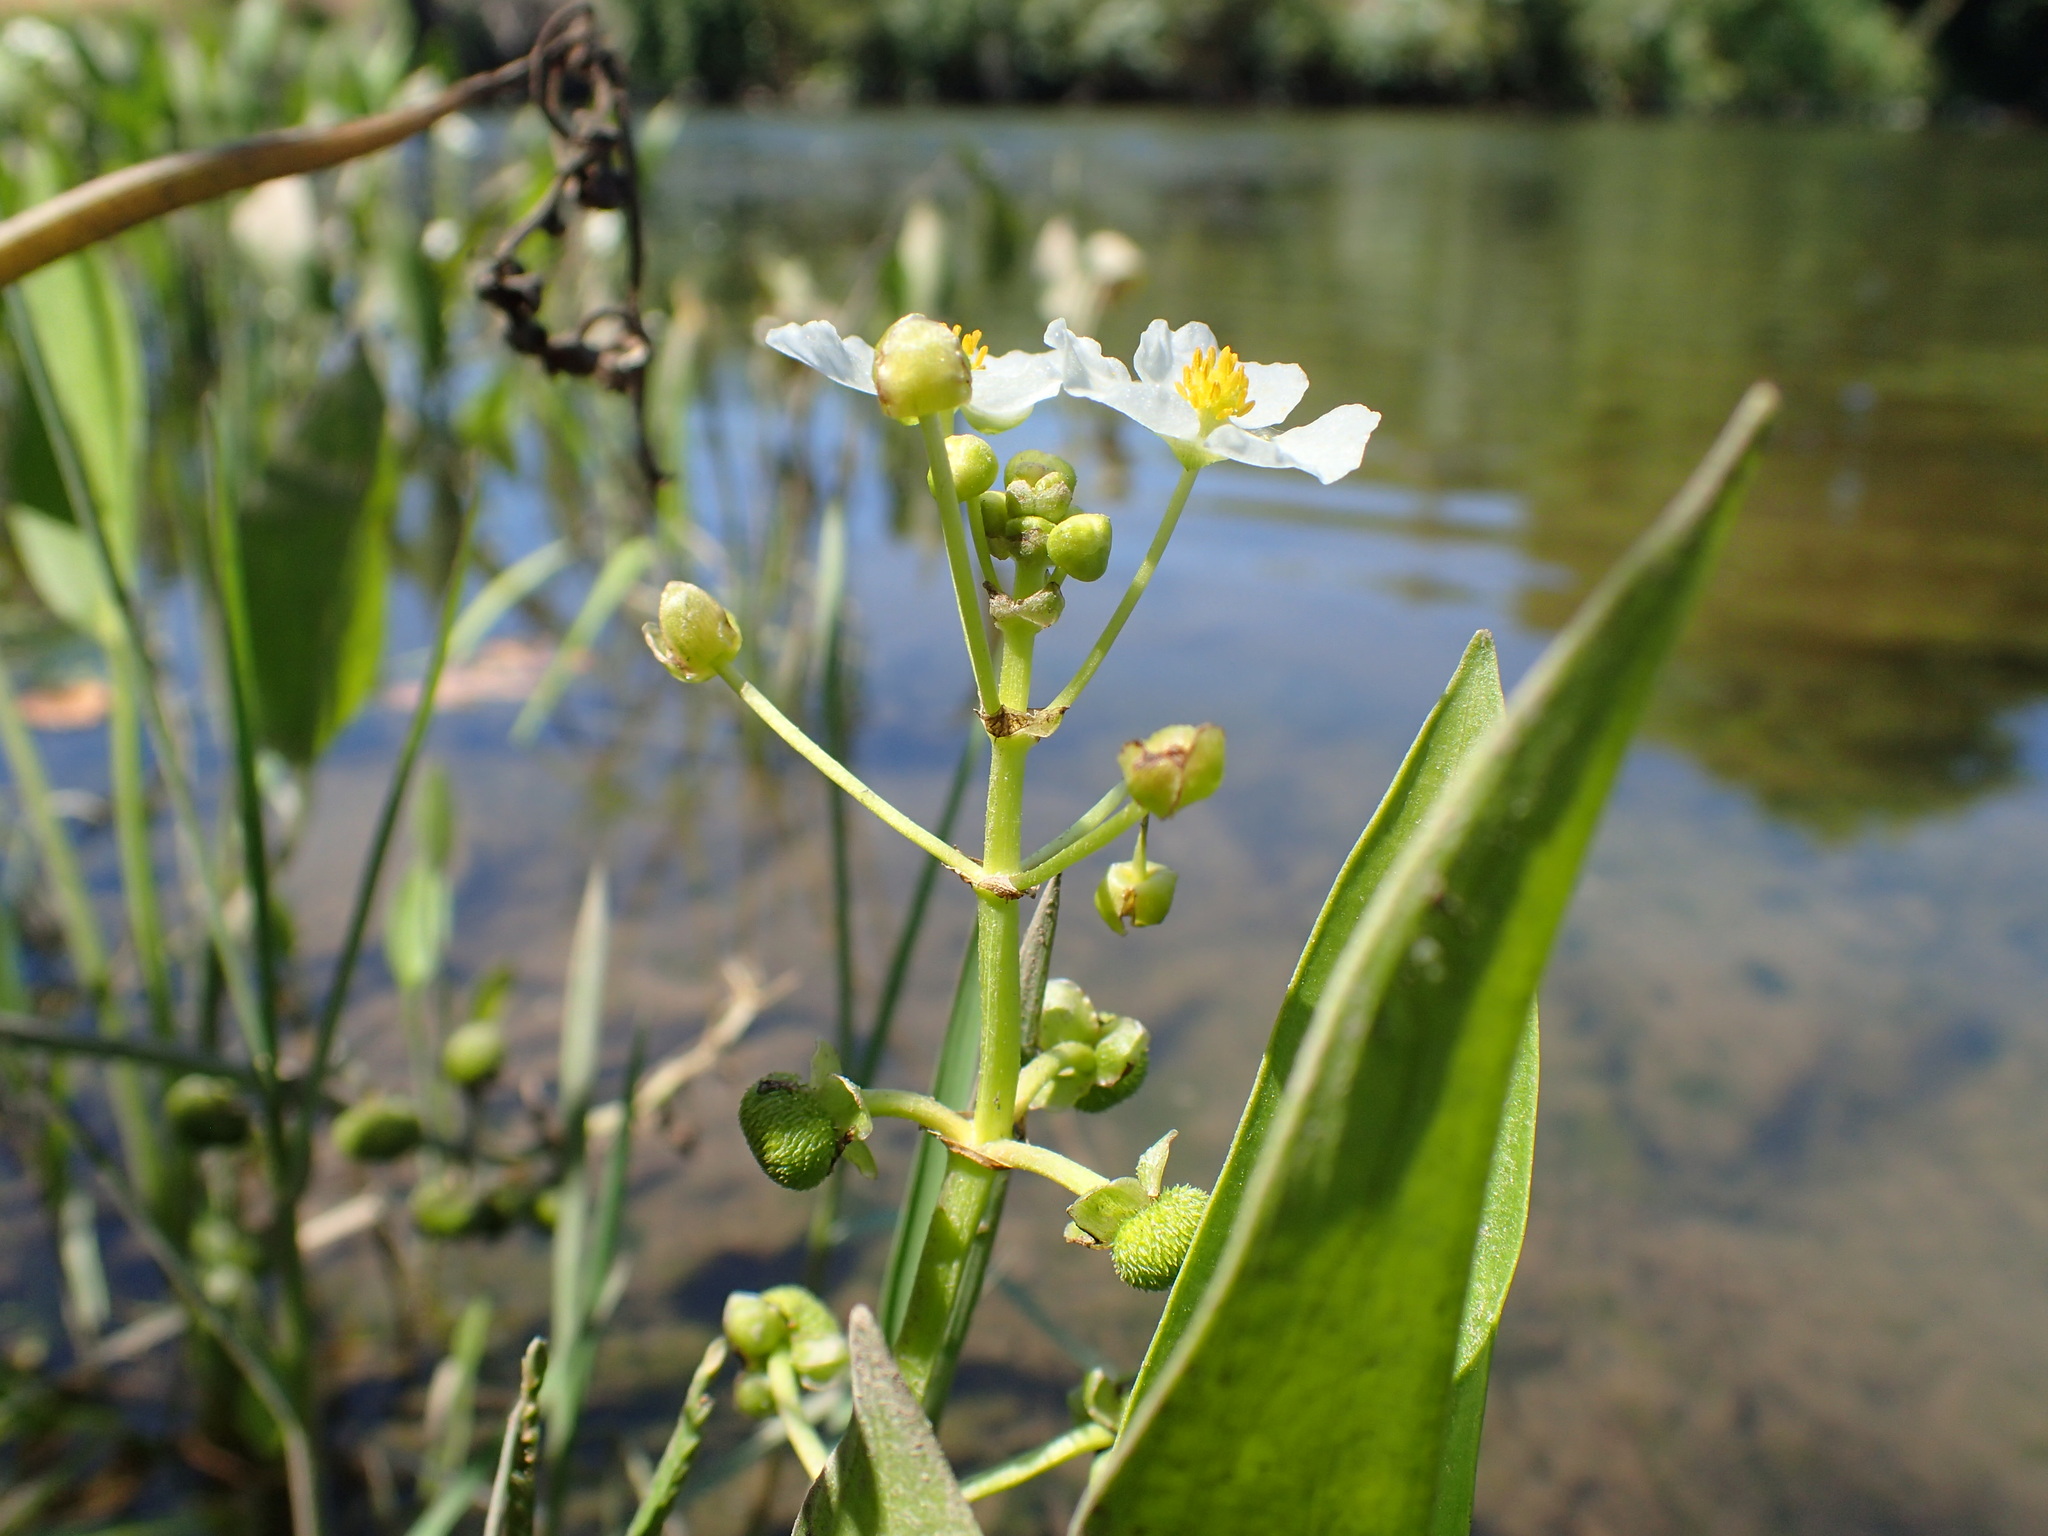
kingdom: Plantae
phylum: Tracheophyta
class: Liliopsida
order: Alismatales
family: Alismataceae
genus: Sagittaria
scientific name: Sagittaria sanfordii
